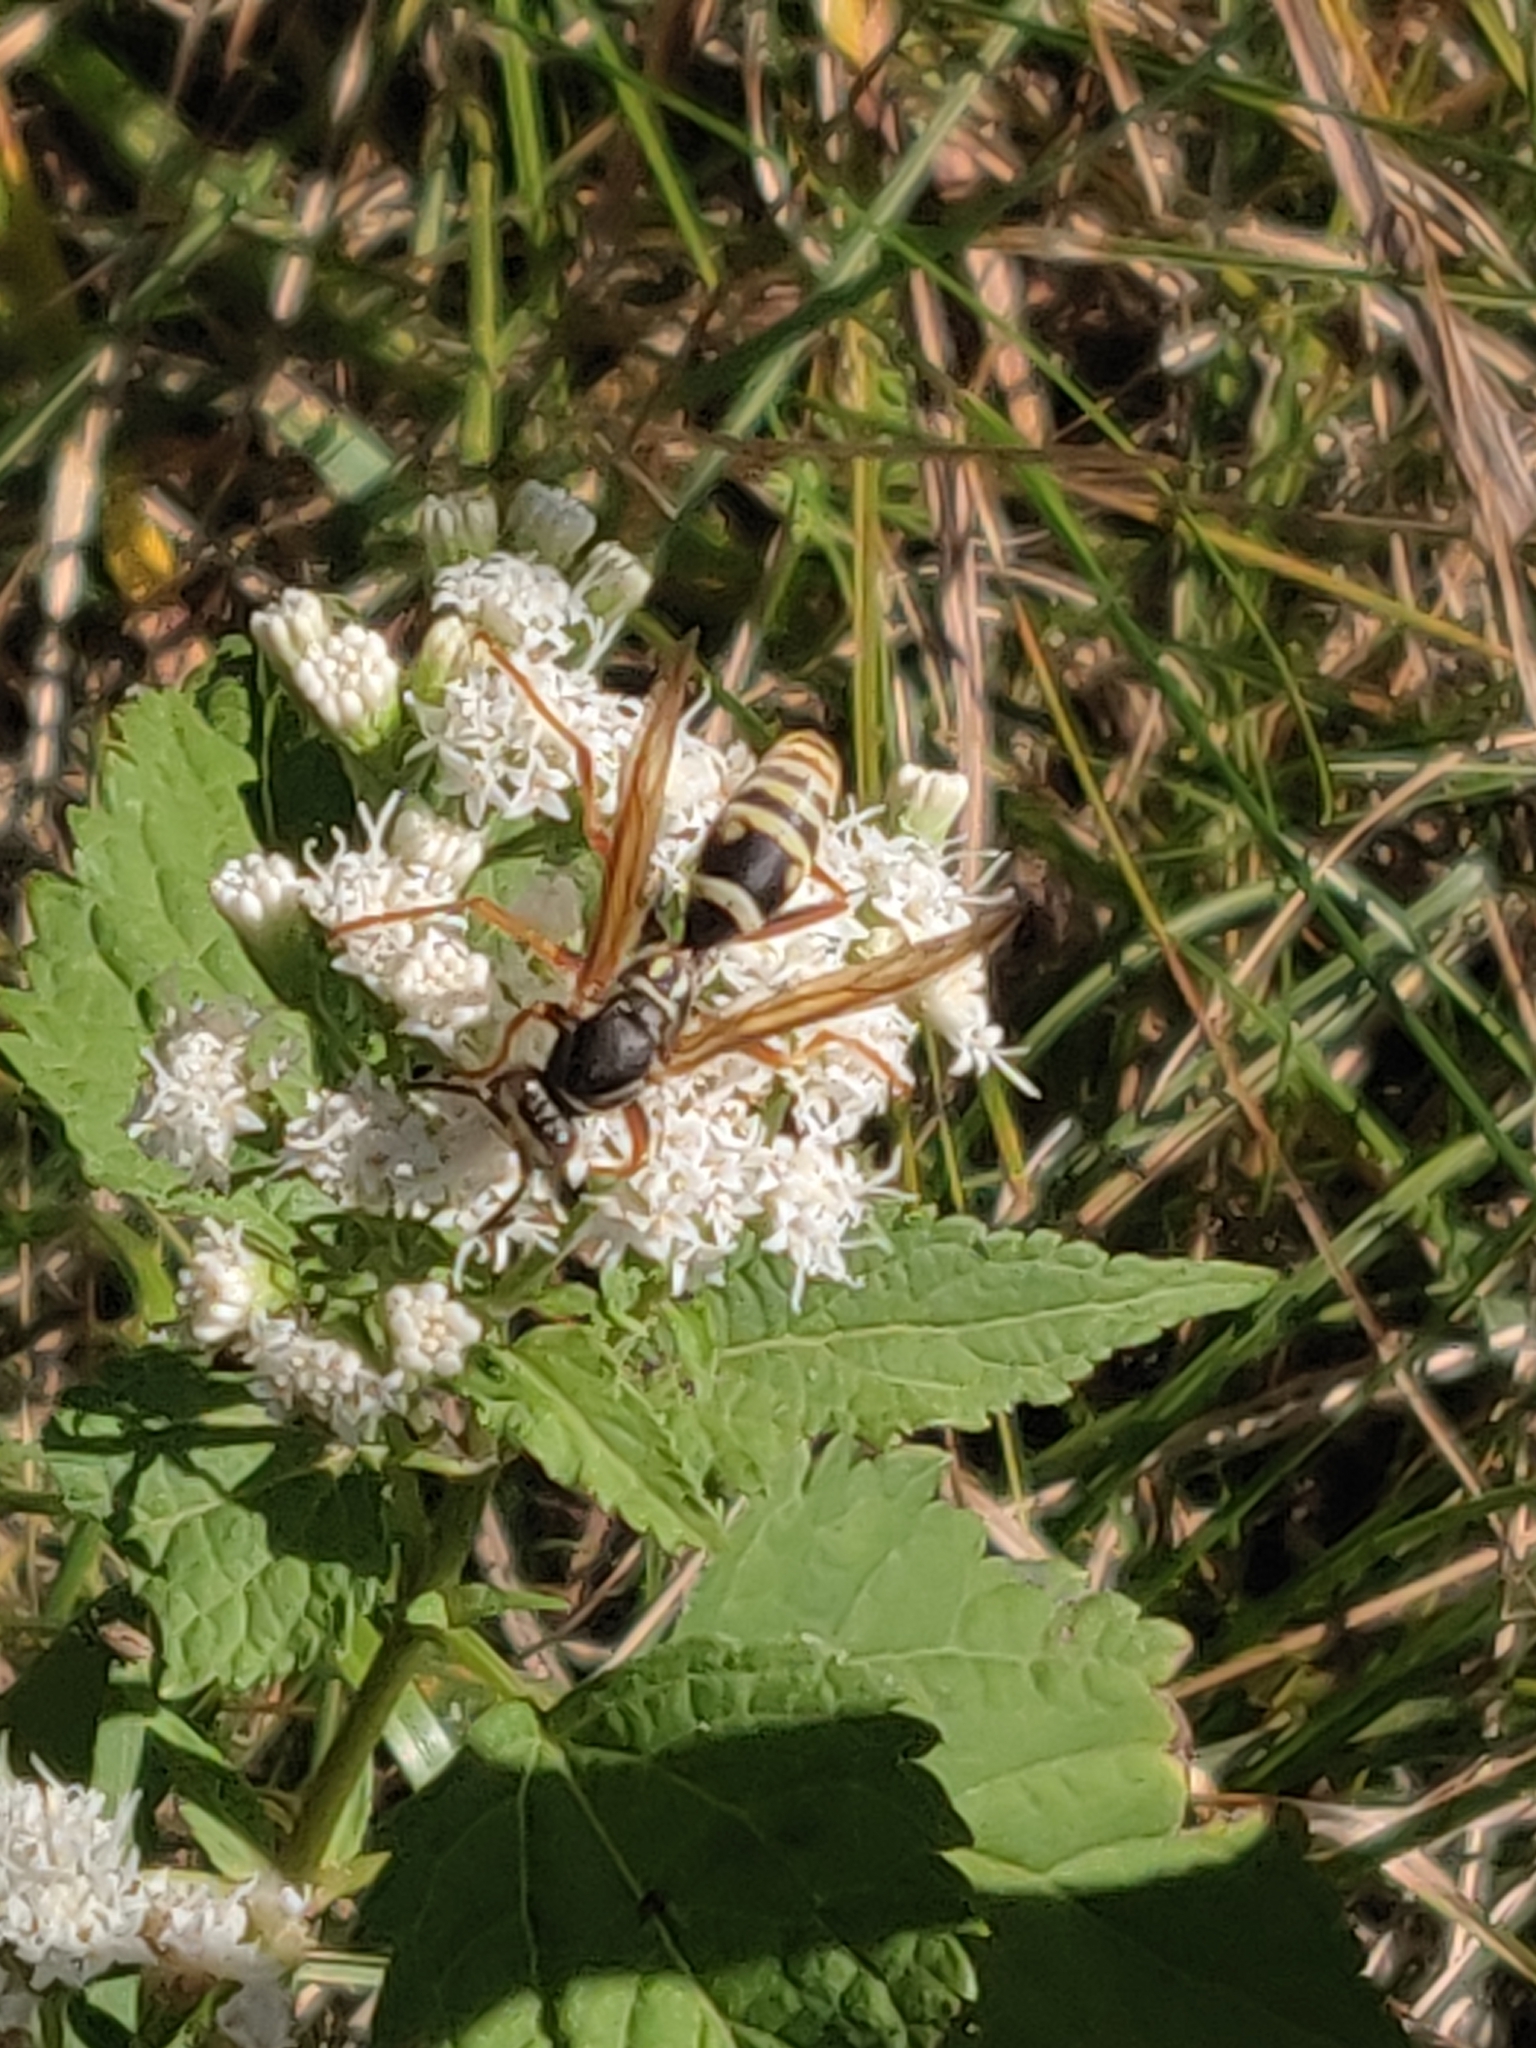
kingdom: Animalia
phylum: Arthropoda
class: Insecta
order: Hymenoptera
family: Eumenidae
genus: Polistes
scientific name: Polistes fuscatus
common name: Dark paper wasp
